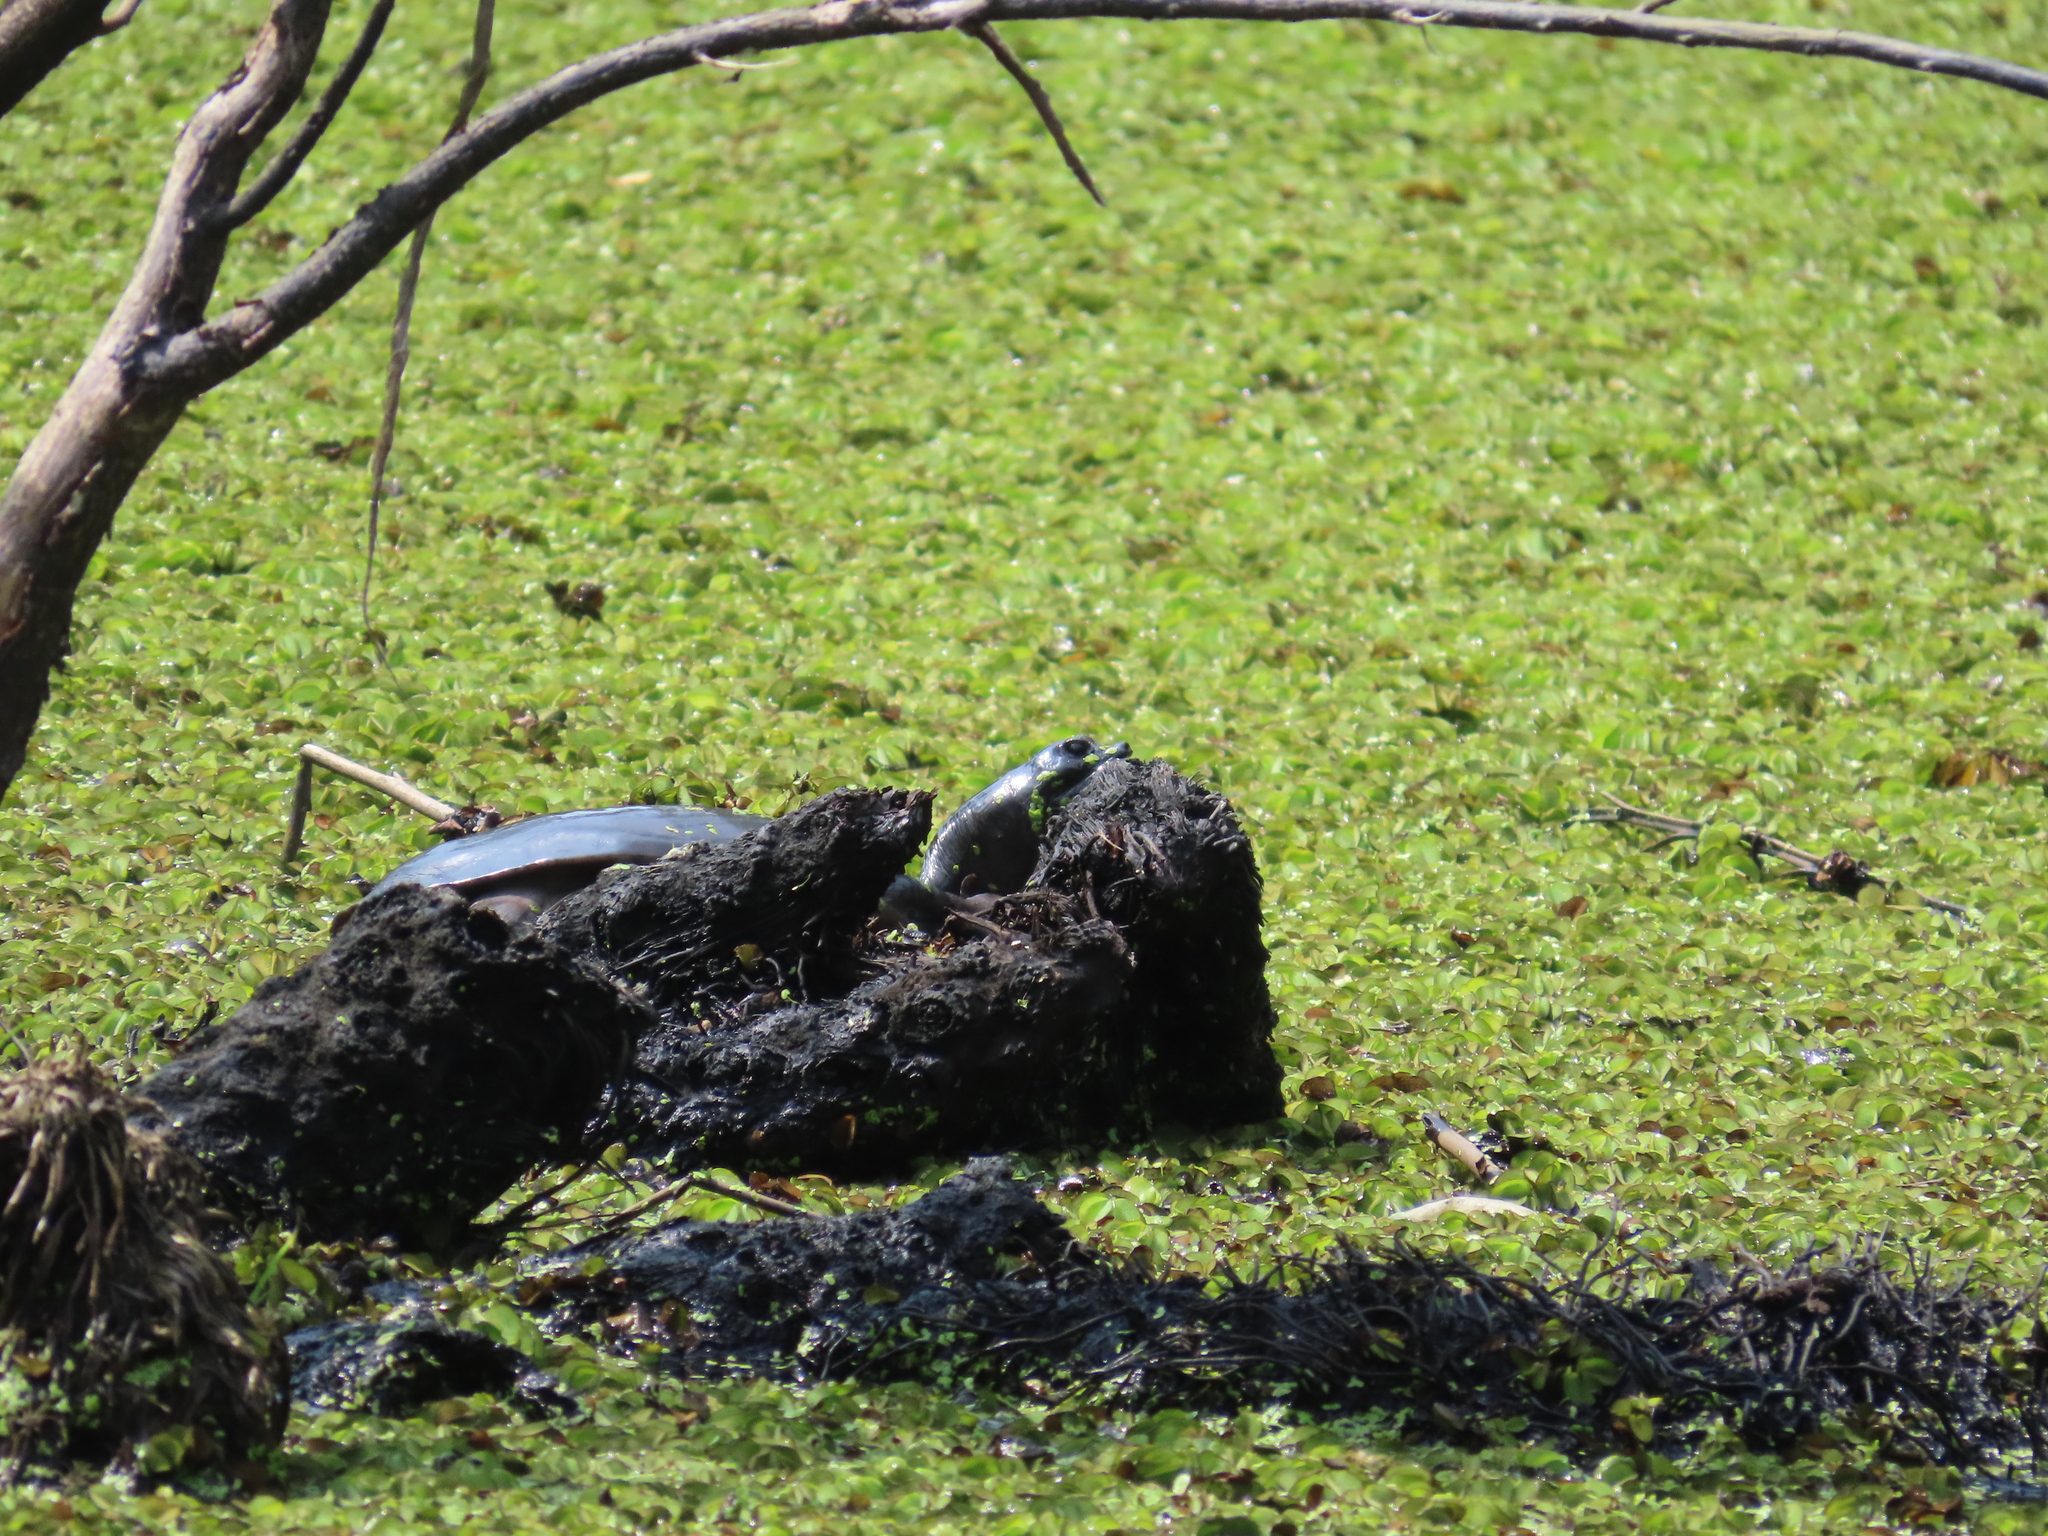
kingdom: Animalia
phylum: Chordata
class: Testudines
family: Trionychidae
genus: Lissemys
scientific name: Lissemys punctata
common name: Indian flap-shelled turtle
